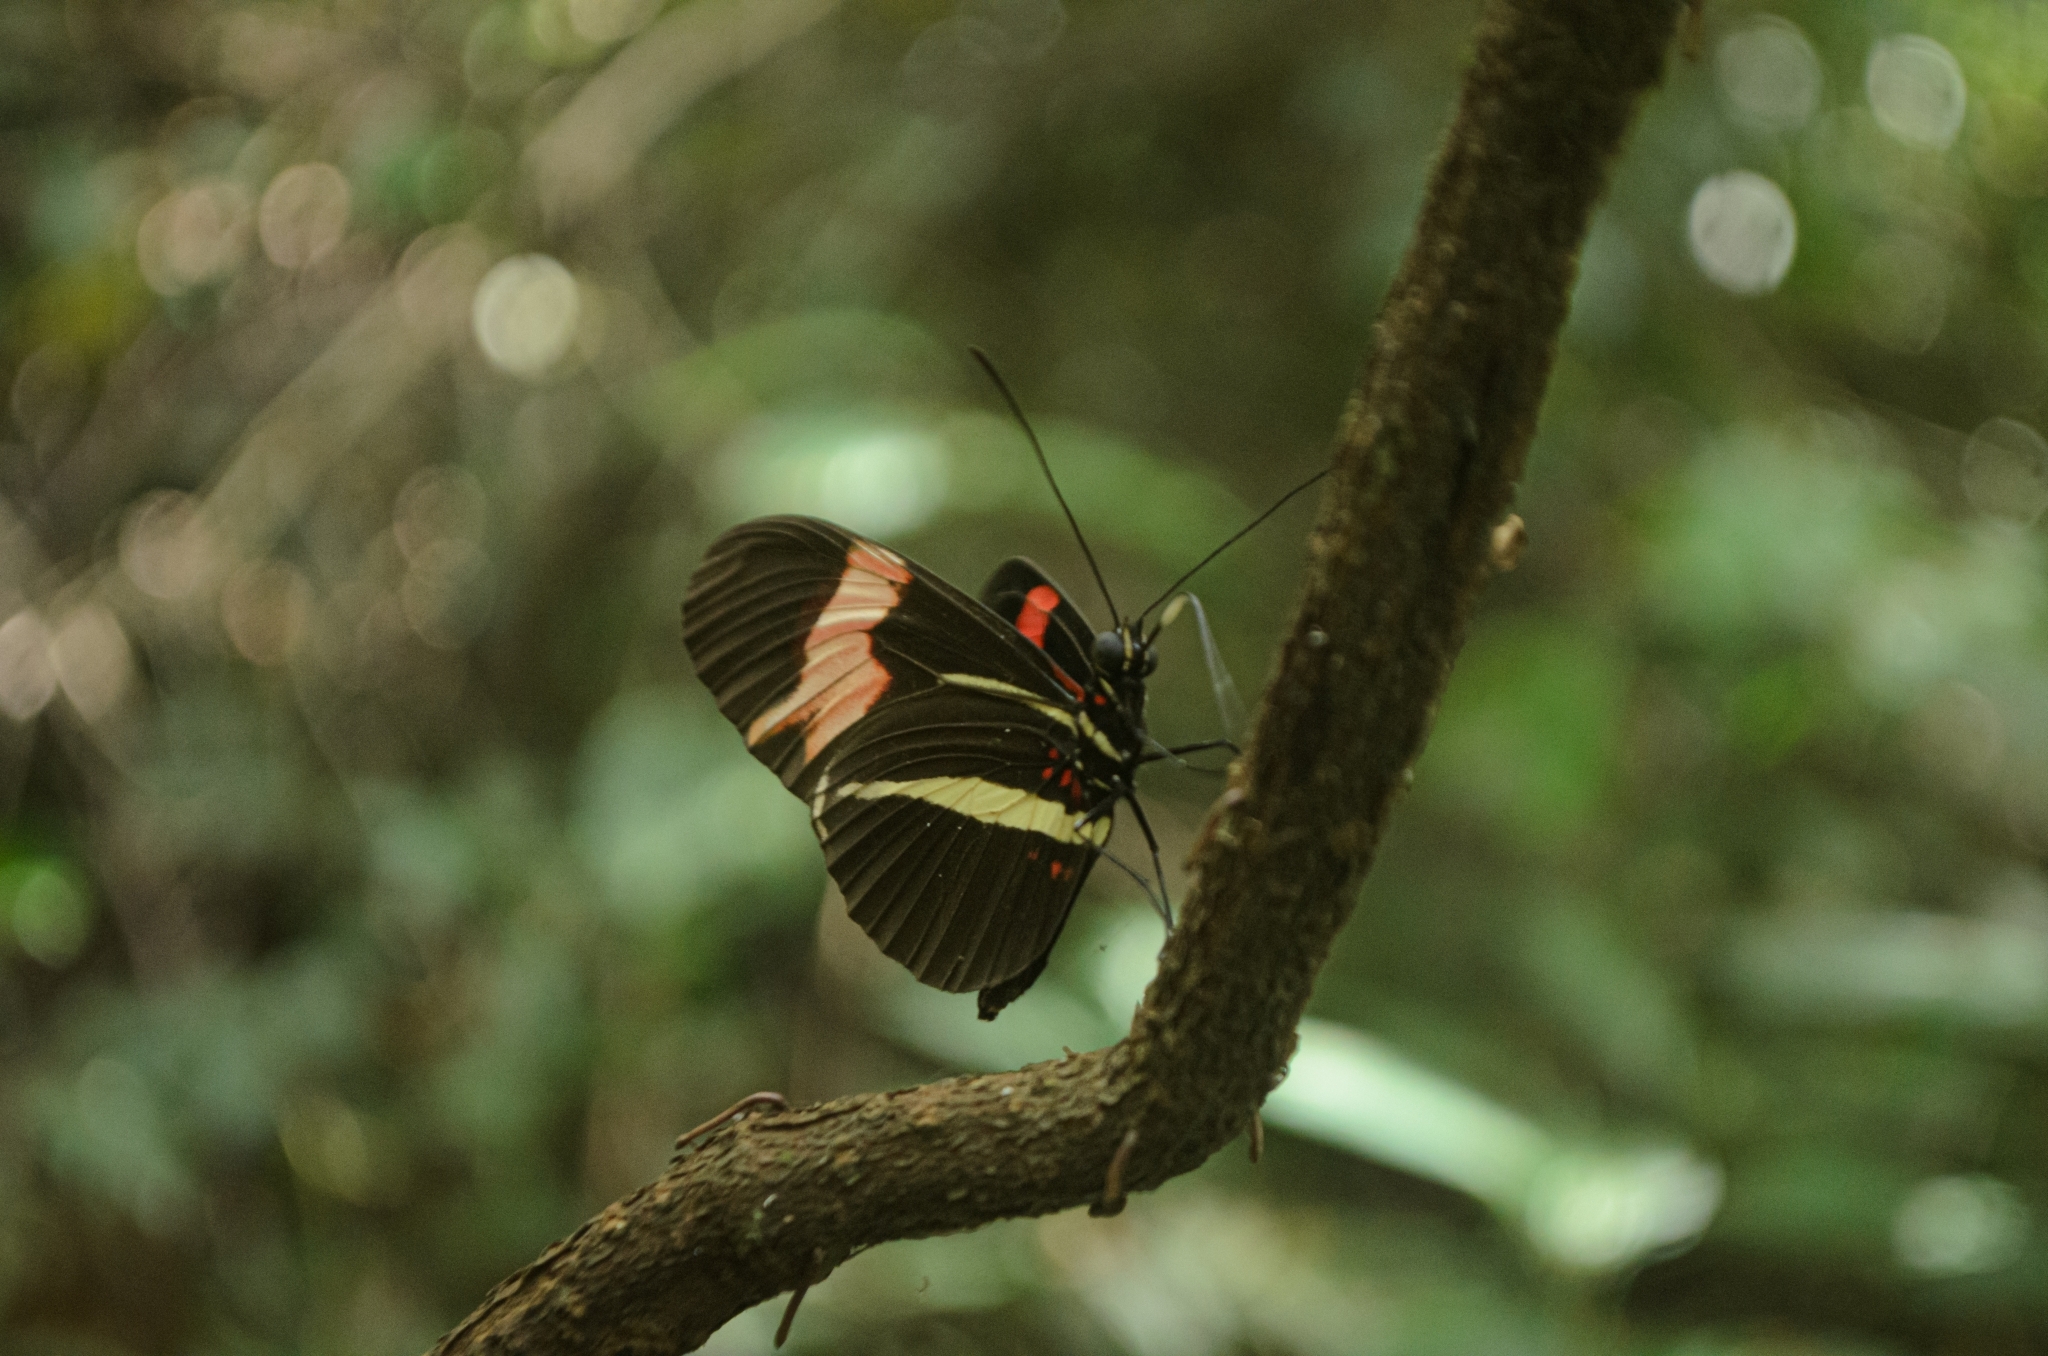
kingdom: Animalia
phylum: Arthropoda
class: Insecta
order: Lepidoptera
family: Nymphalidae
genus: Heliconius
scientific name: Heliconius erato
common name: Common patch longwing
